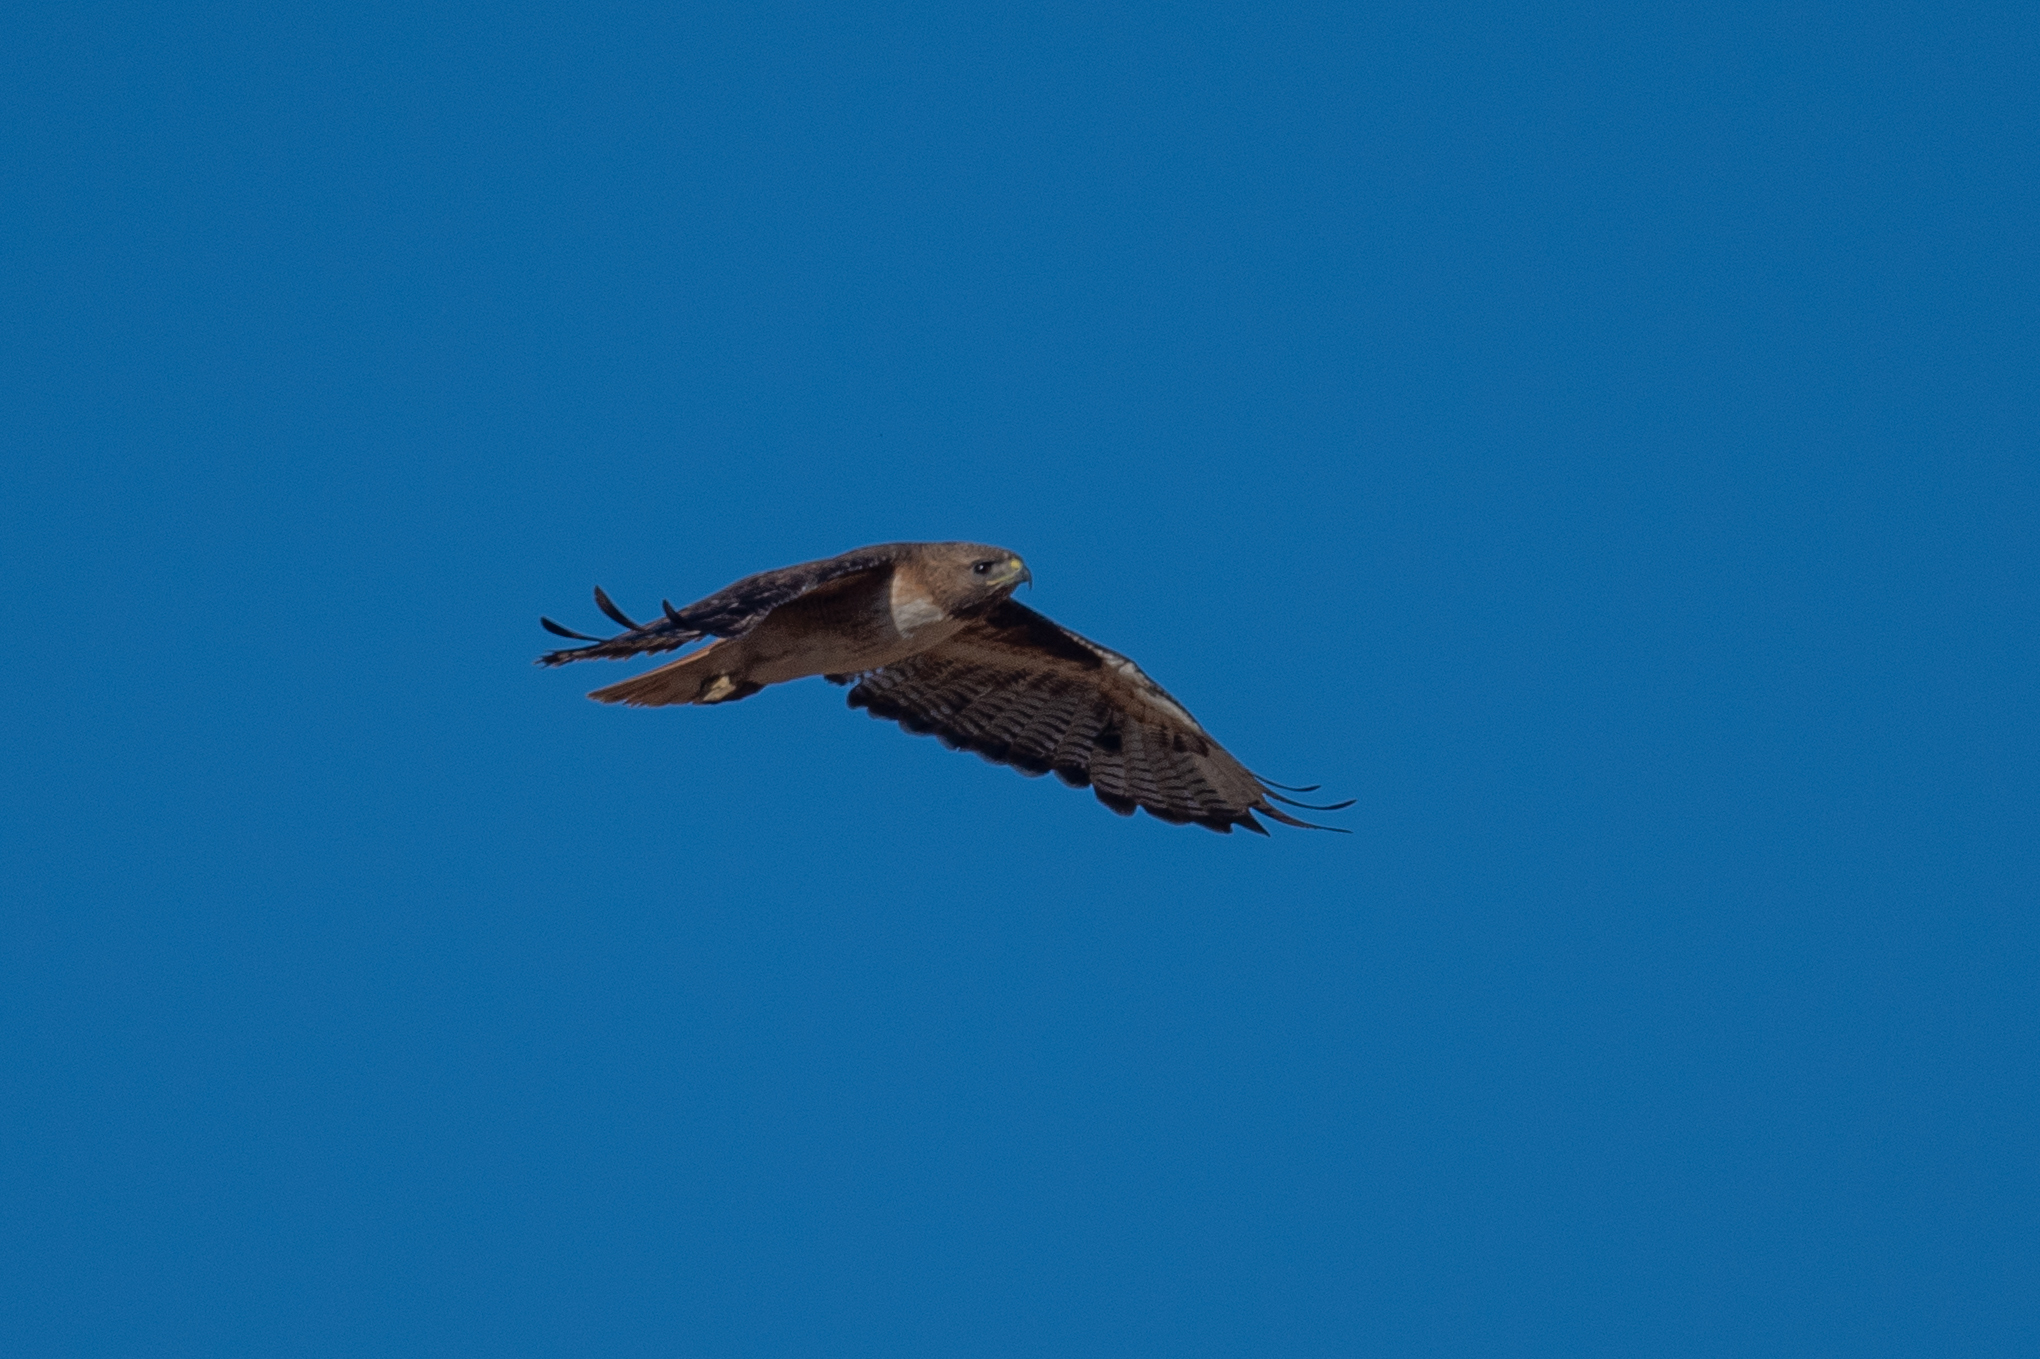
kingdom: Animalia
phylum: Chordata
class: Aves
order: Accipitriformes
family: Accipitridae
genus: Buteo
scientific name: Buteo jamaicensis
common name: Red-tailed hawk
